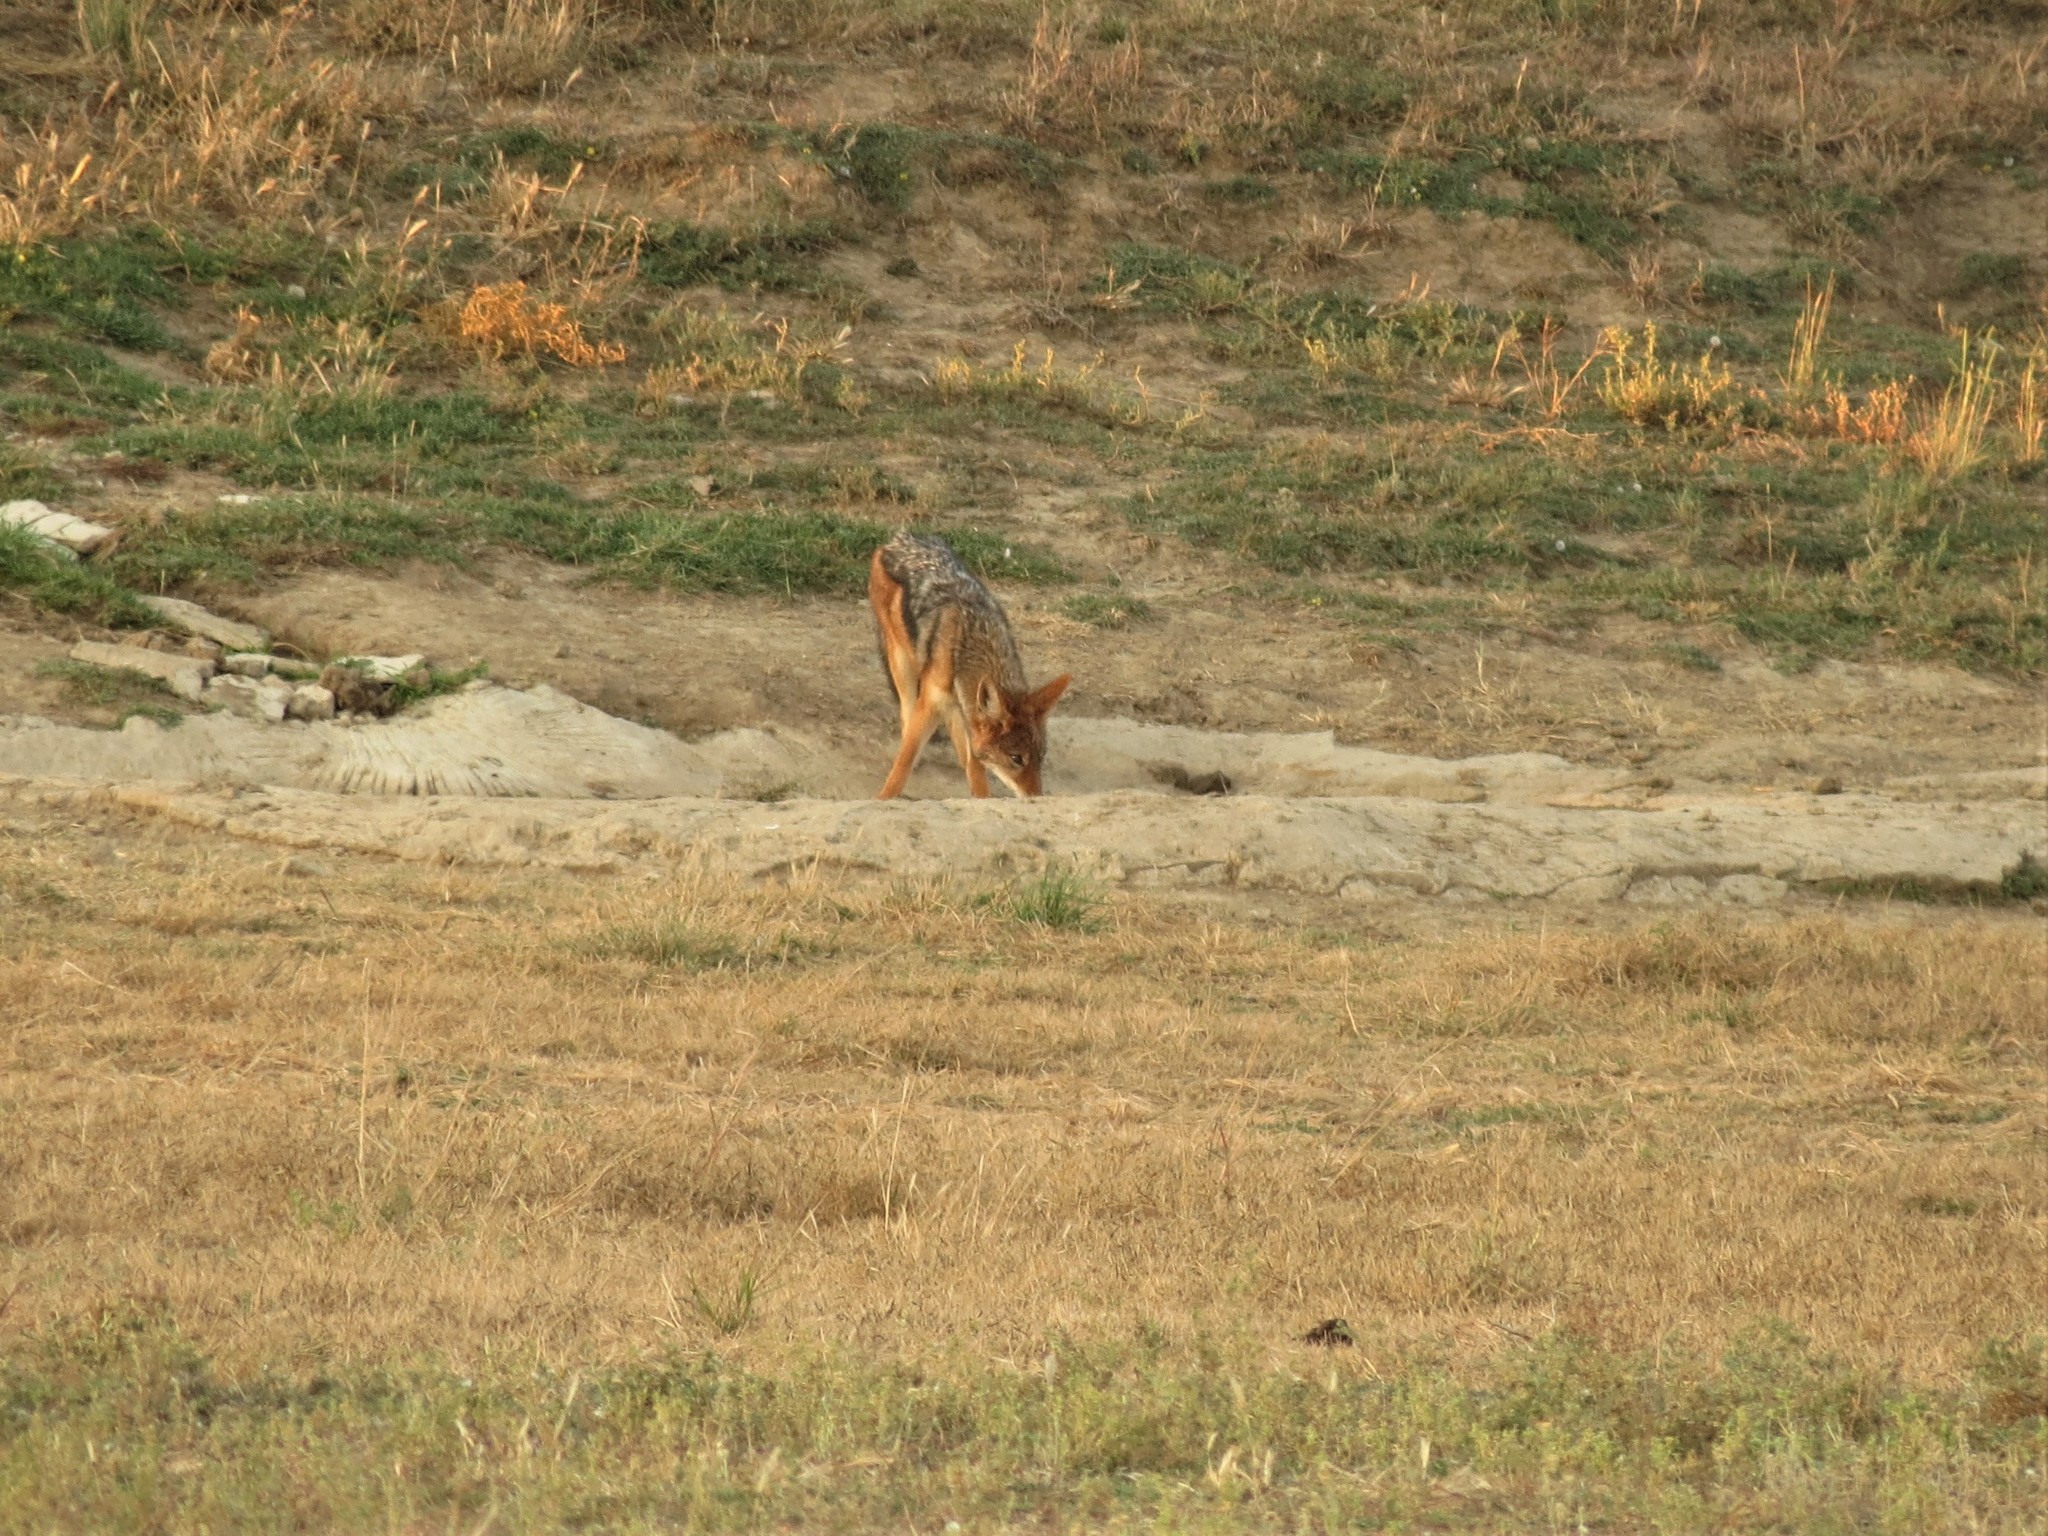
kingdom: Animalia
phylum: Chordata
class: Mammalia
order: Carnivora
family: Canidae
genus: Lupulella
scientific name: Lupulella
